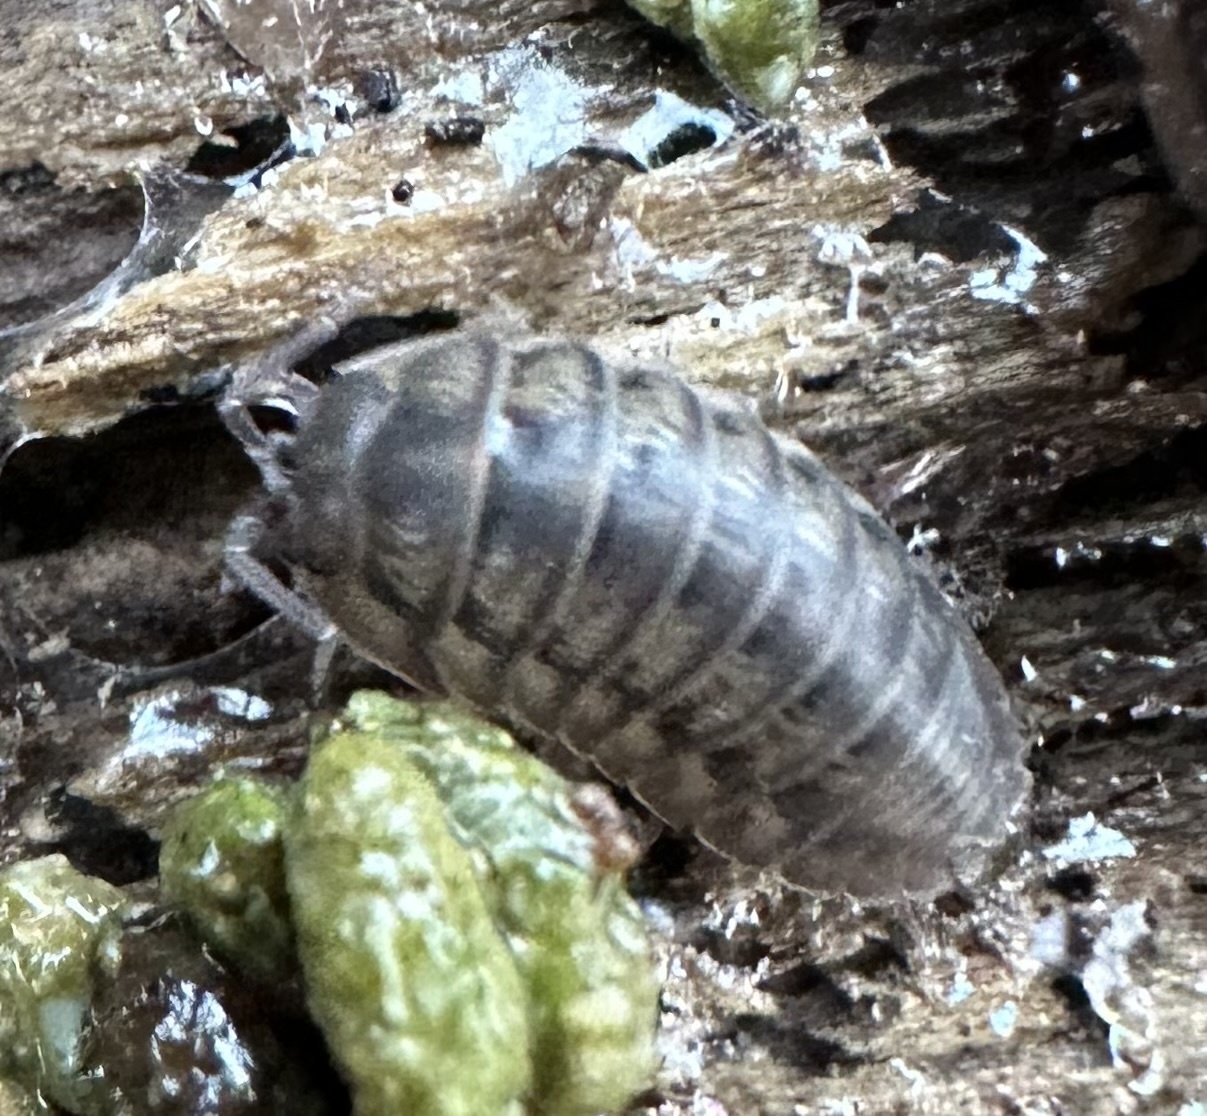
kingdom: Animalia
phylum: Arthropoda
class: Malacostraca
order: Isopoda
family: Armadillidiidae
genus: Armadillidium
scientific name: Armadillidium nasatum
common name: Isopod
